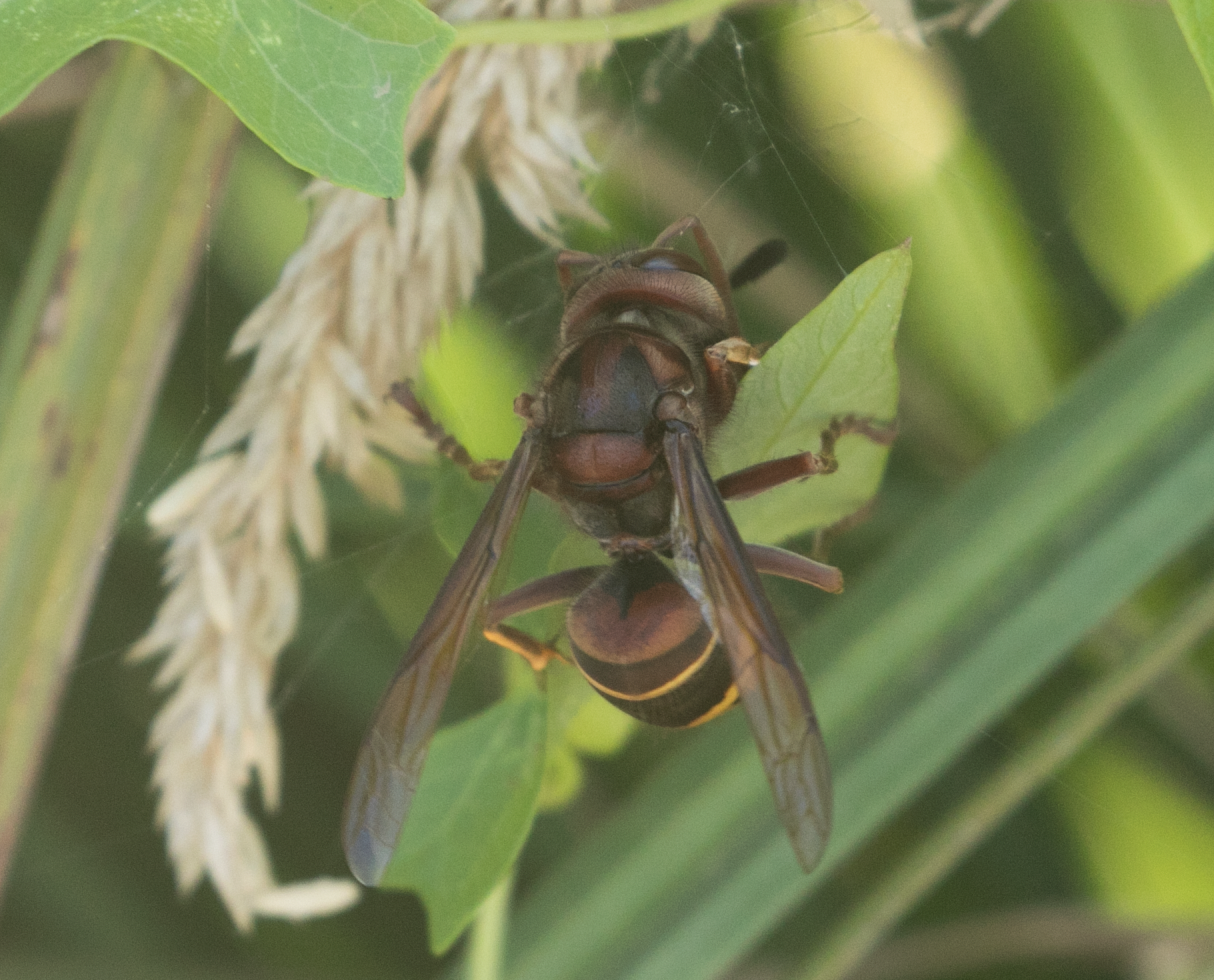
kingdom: Animalia
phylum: Arthropoda
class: Insecta
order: Hymenoptera
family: Vespidae
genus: Vespa
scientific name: Vespa crabro
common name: Hornet
